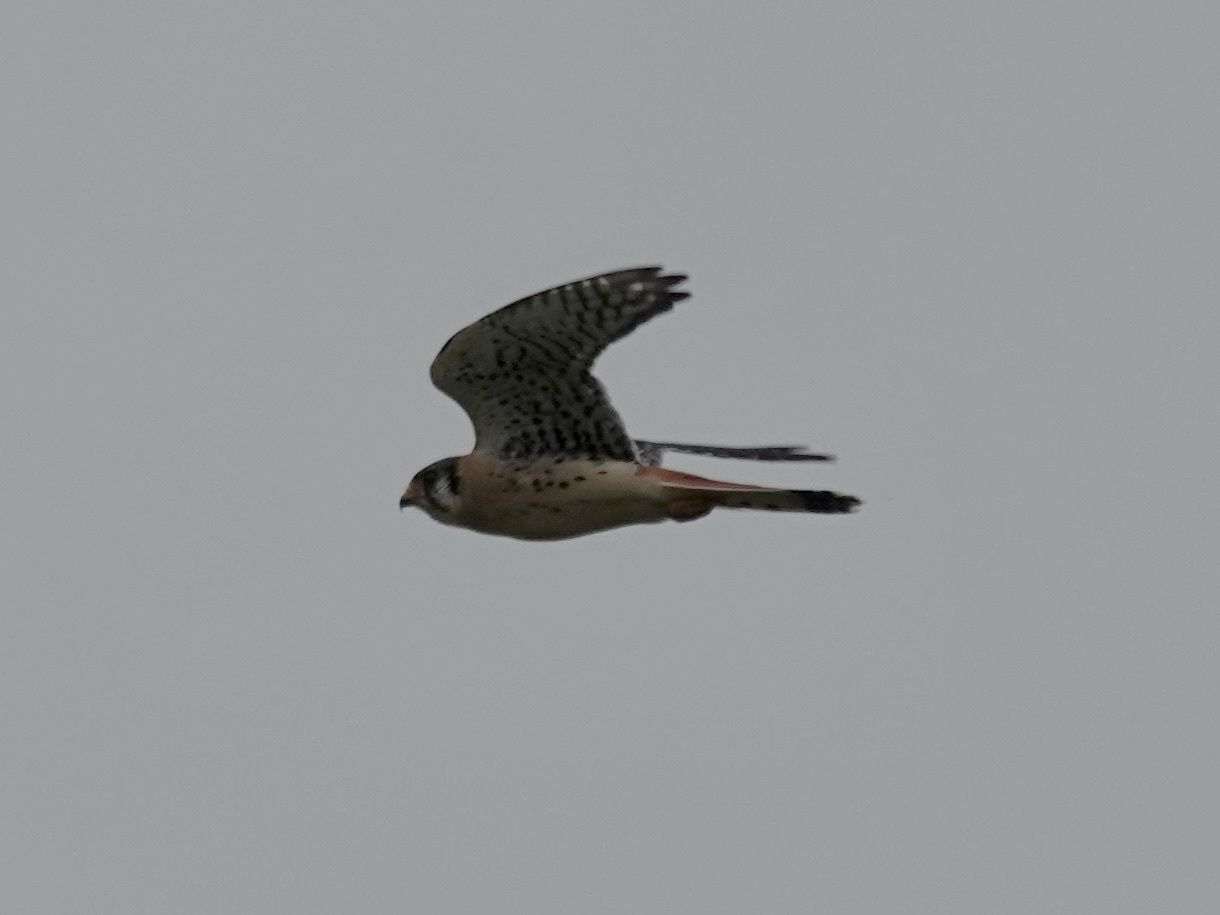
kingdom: Animalia
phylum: Chordata
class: Aves
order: Falconiformes
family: Falconidae
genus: Falco
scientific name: Falco sparverius
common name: American kestrel
